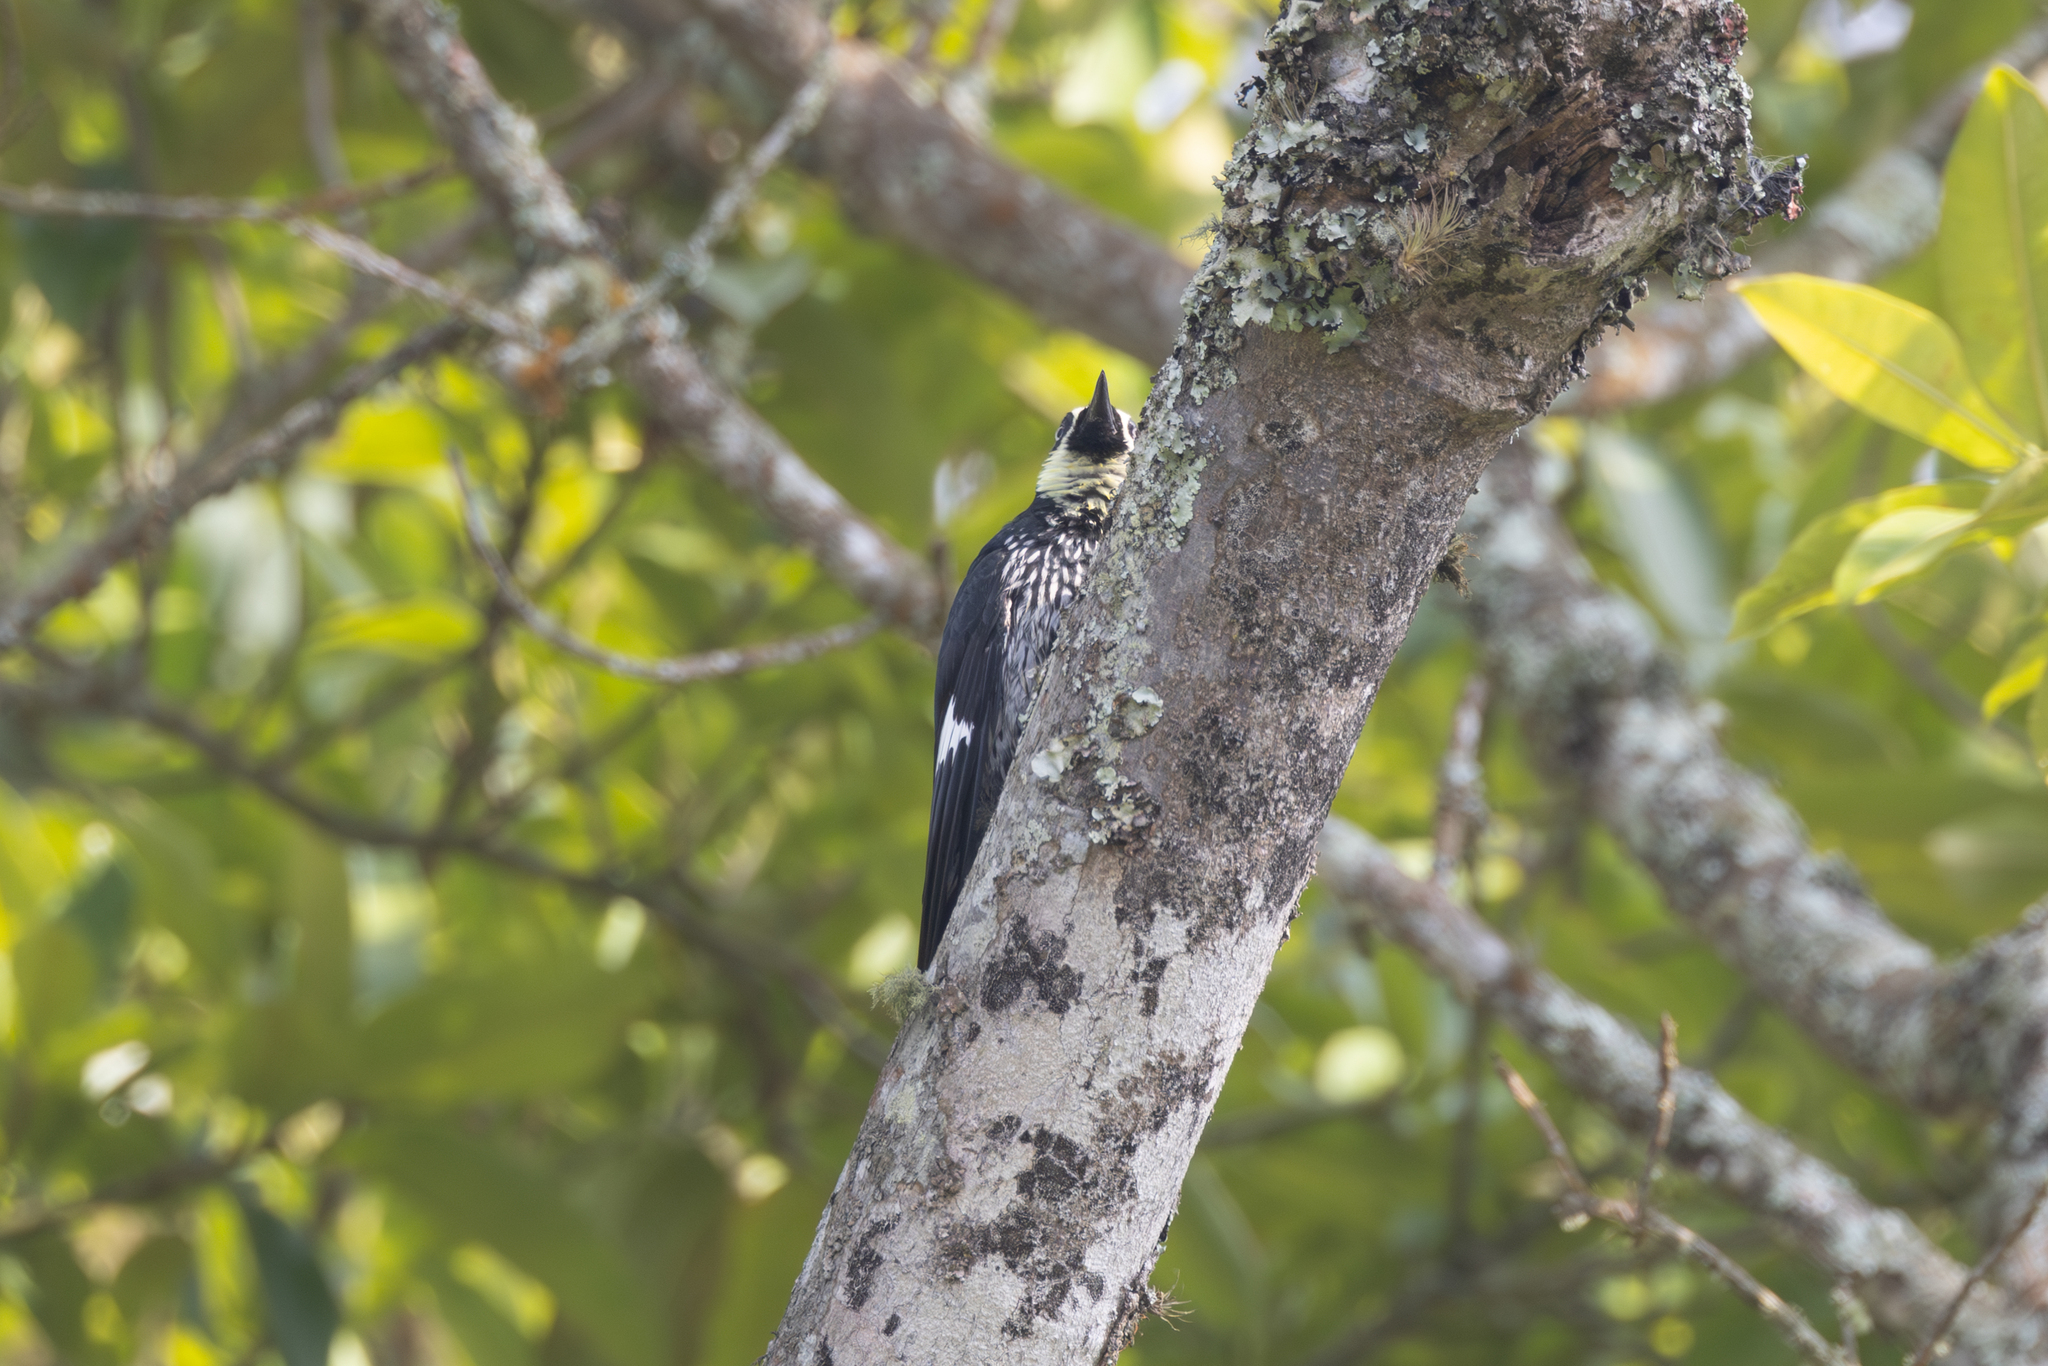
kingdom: Animalia
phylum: Chordata
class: Aves
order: Piciformes
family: Picidae
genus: Melanerpes
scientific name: Melanerpes formicivorus
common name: Acorn woodpecker
